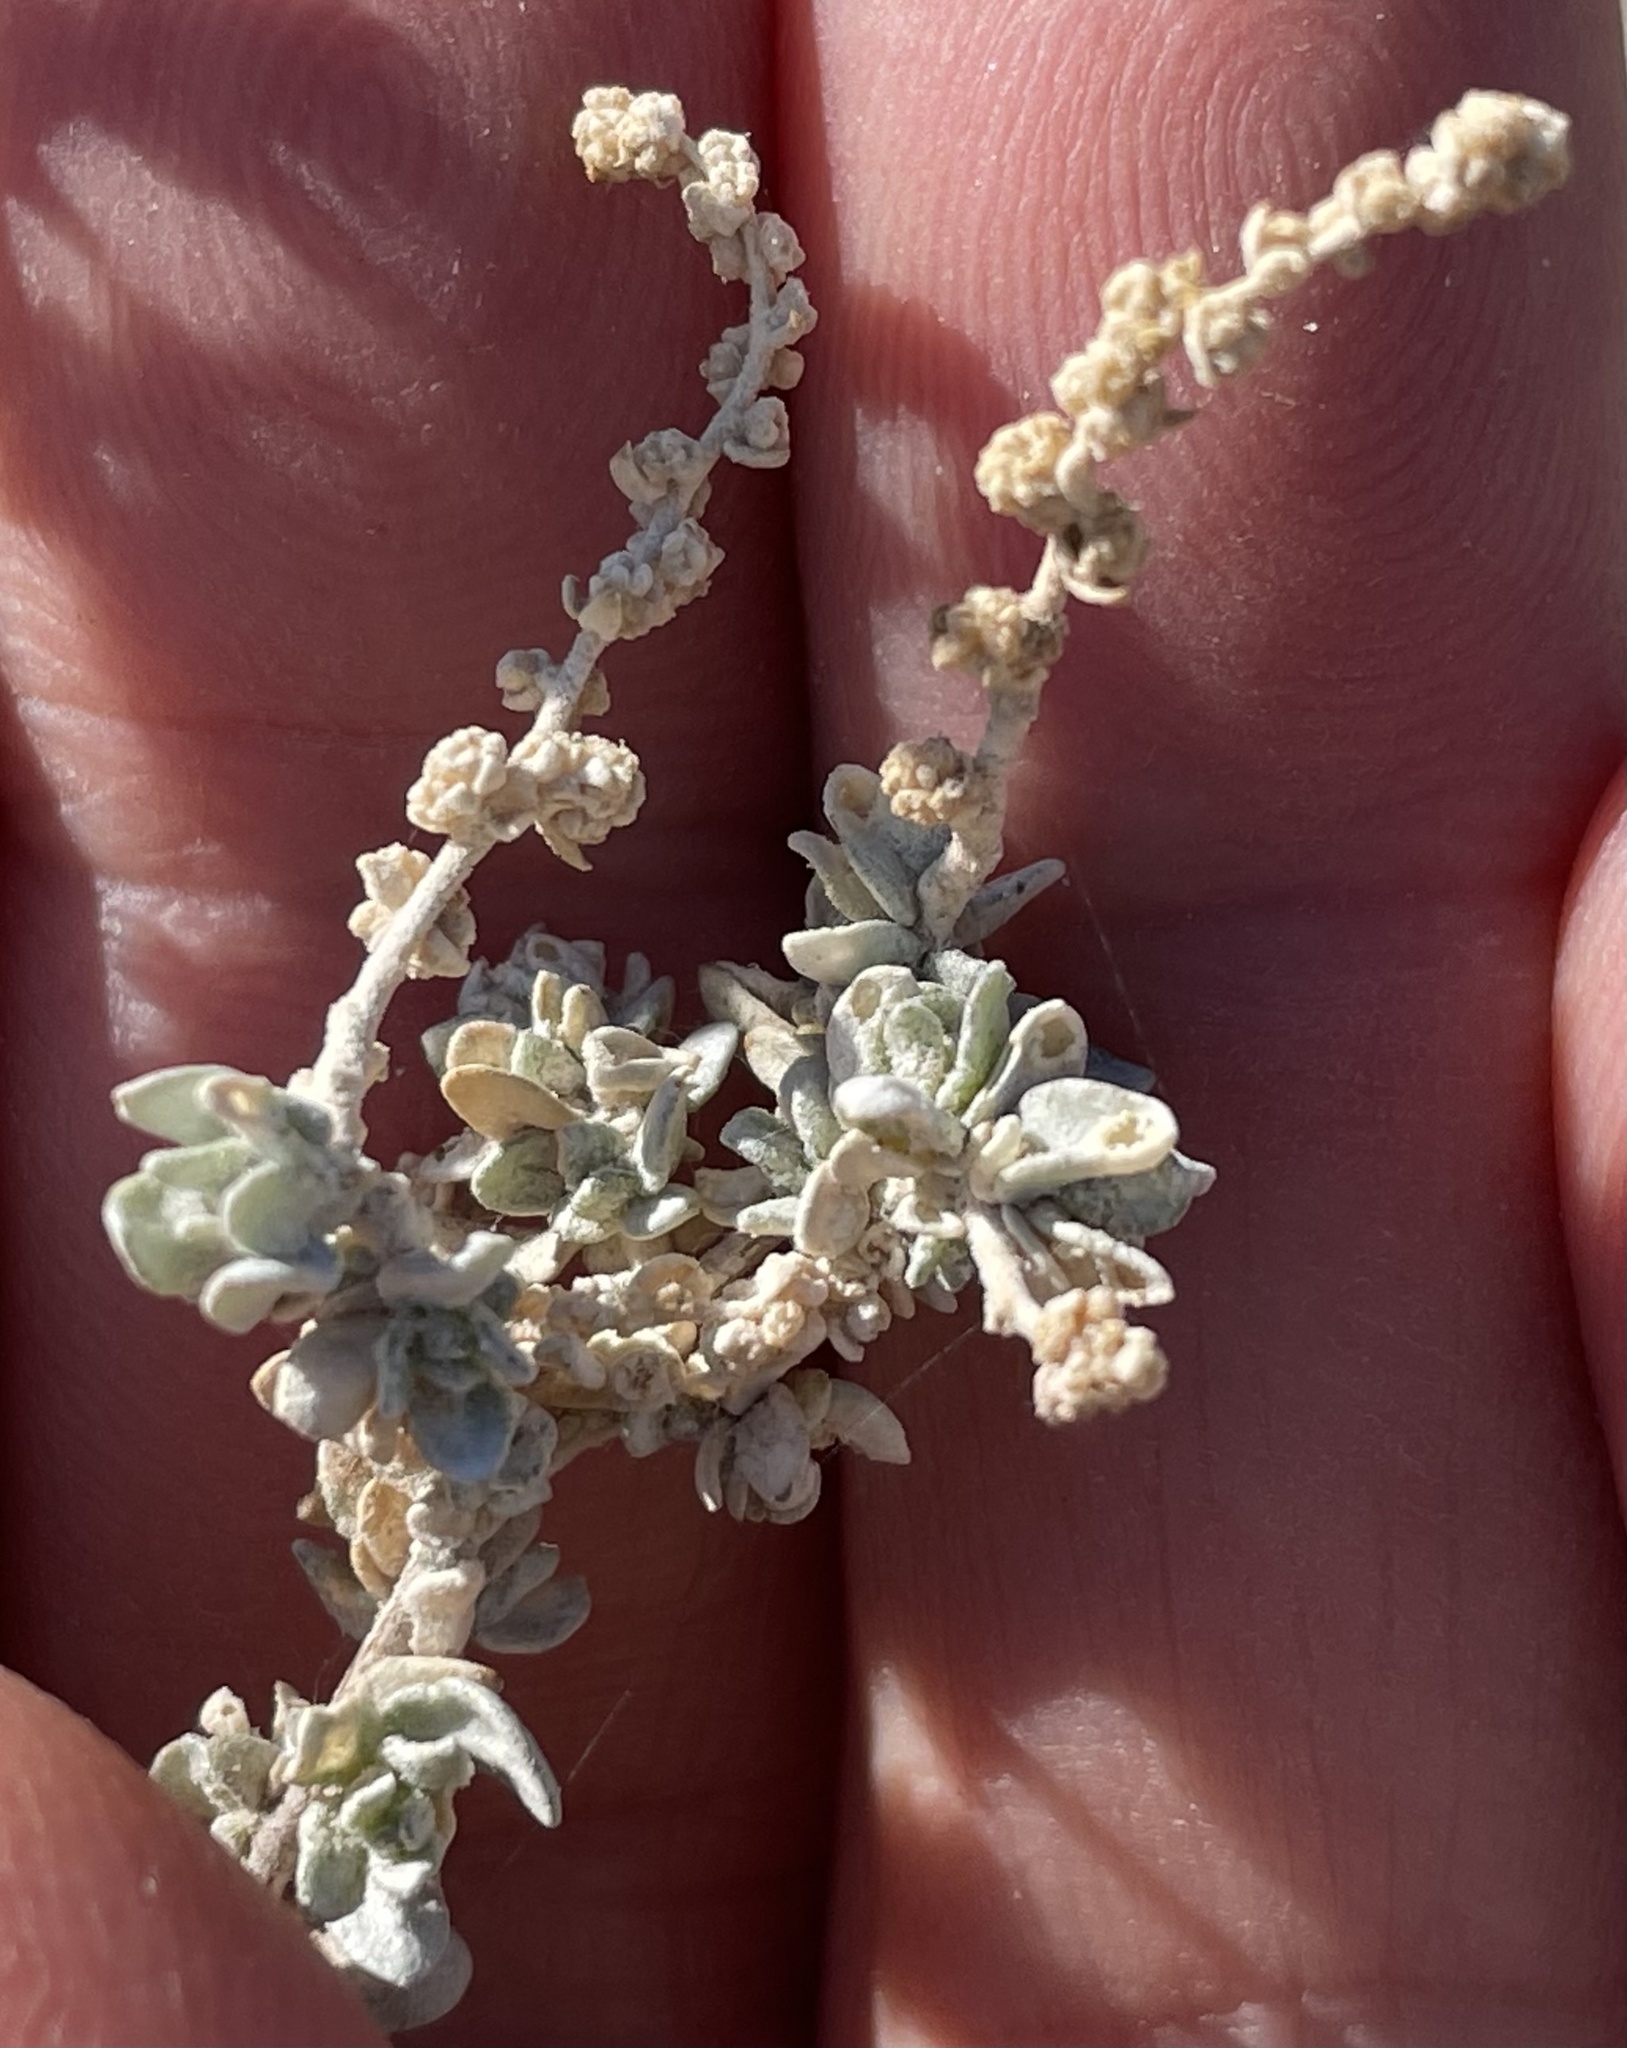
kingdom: Plantae
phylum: Tracheophyta
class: Magnoliopsida
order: Caryophyllales
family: Amaranthaceae
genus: Atriplex
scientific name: Atriplex polycarpa
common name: Desert saltbush
